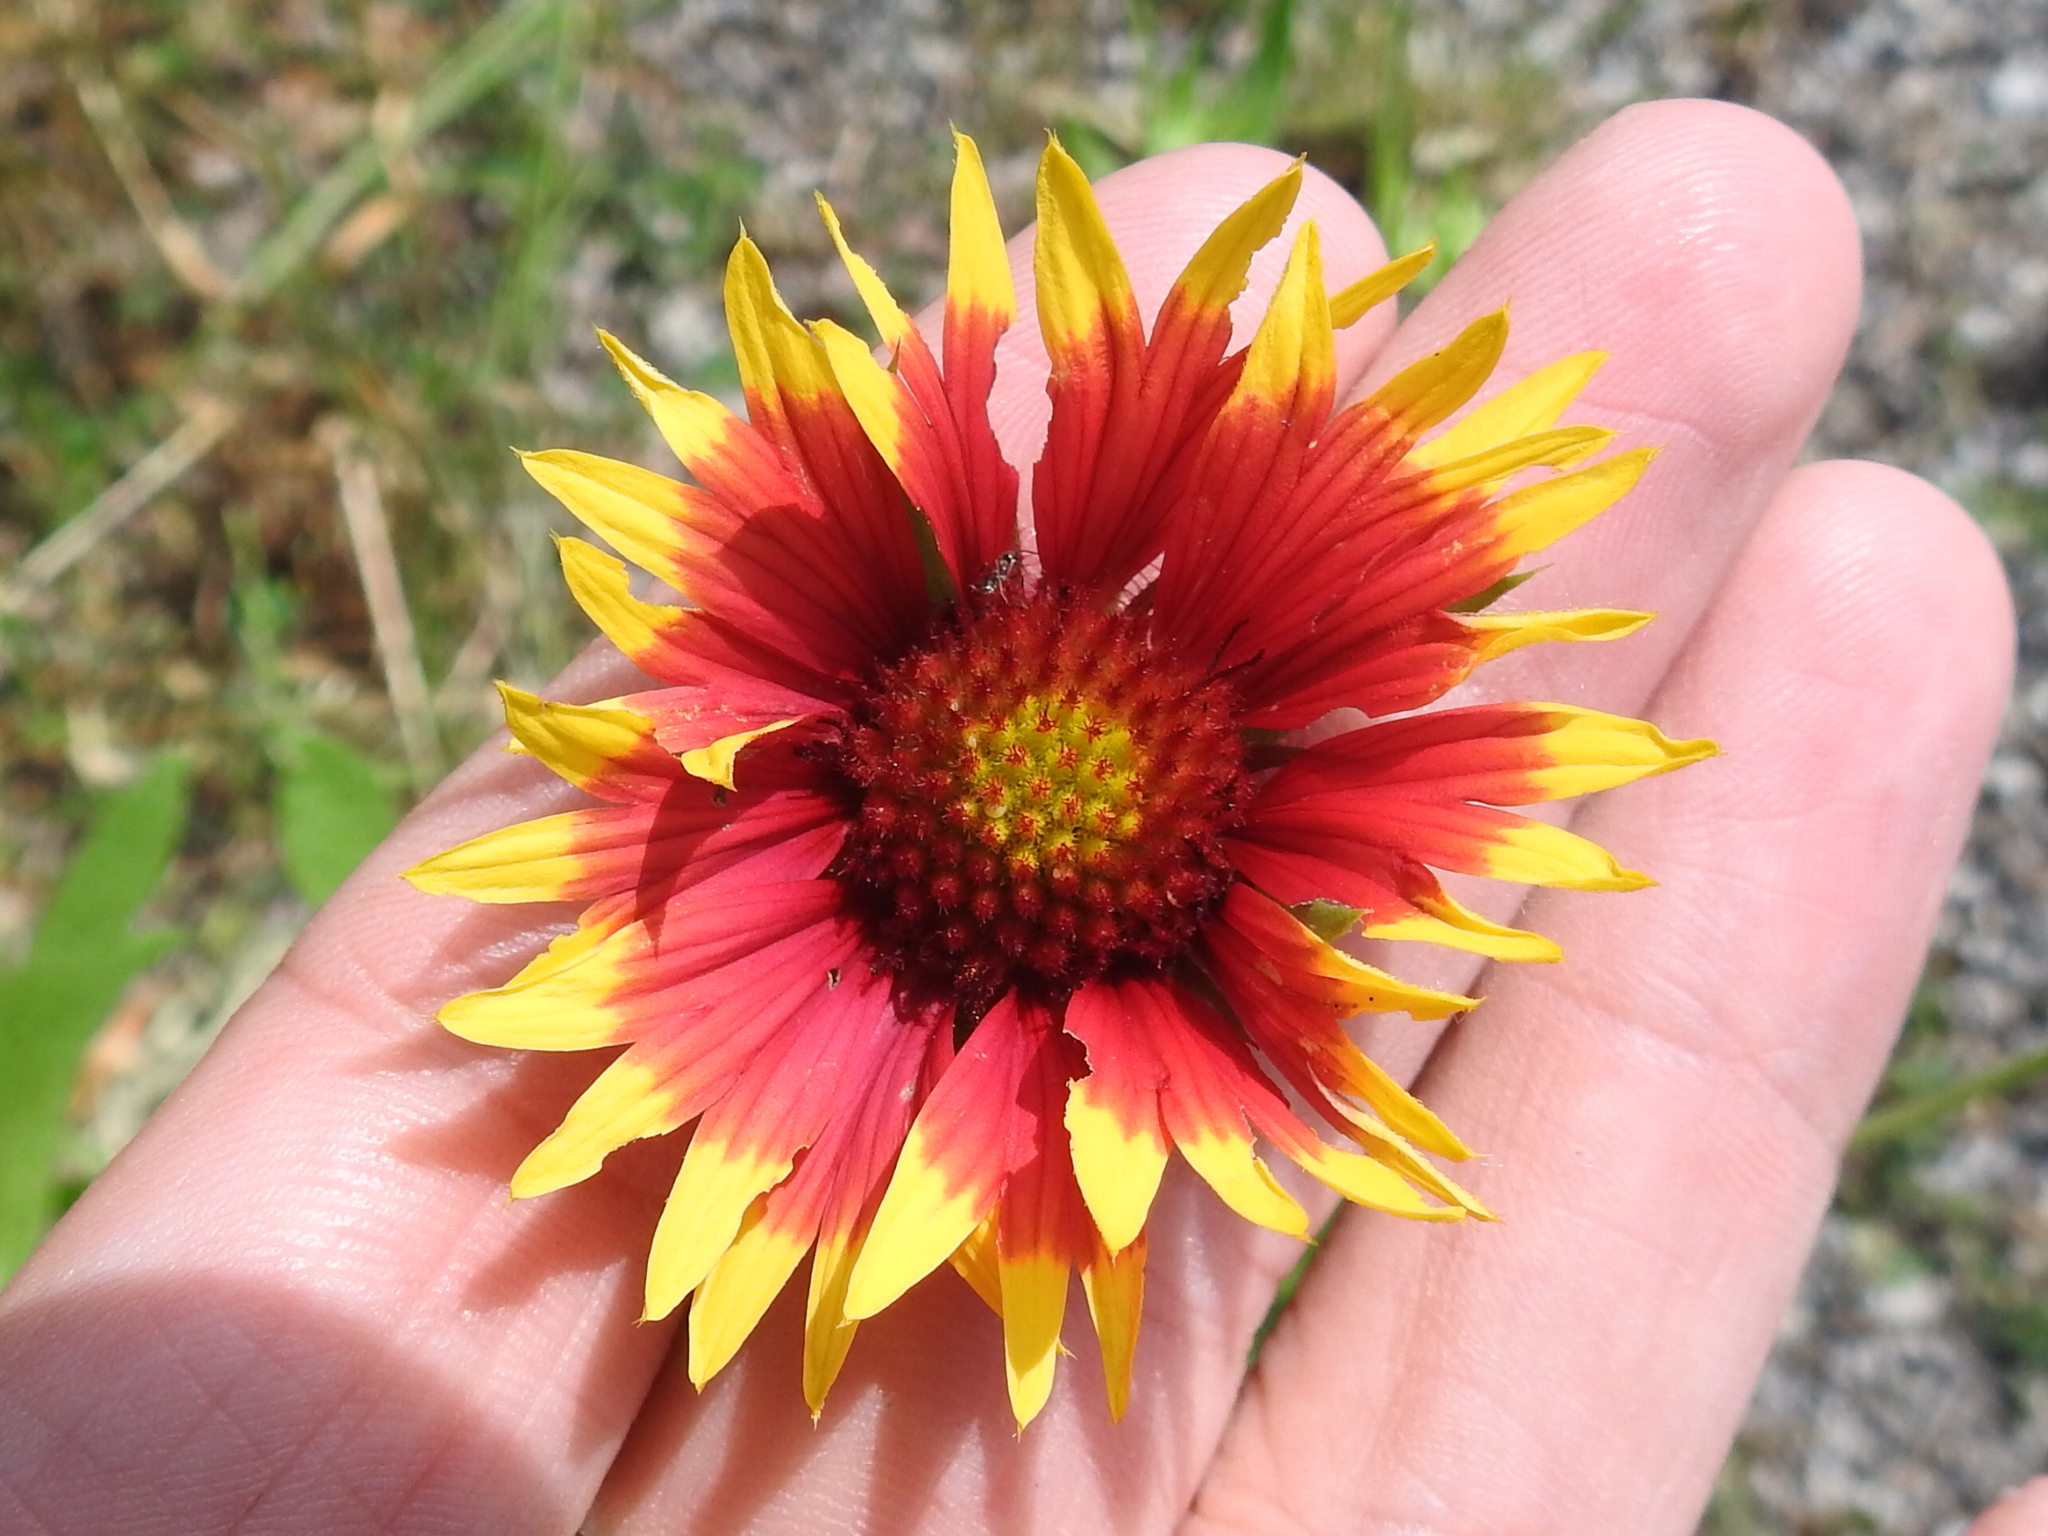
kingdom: Plantae
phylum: Tracheophyta
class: Magnoliopsida
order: Asterales
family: Asteraceae
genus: Gaillardia
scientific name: Gaillardia pulchella
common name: Firewheel
